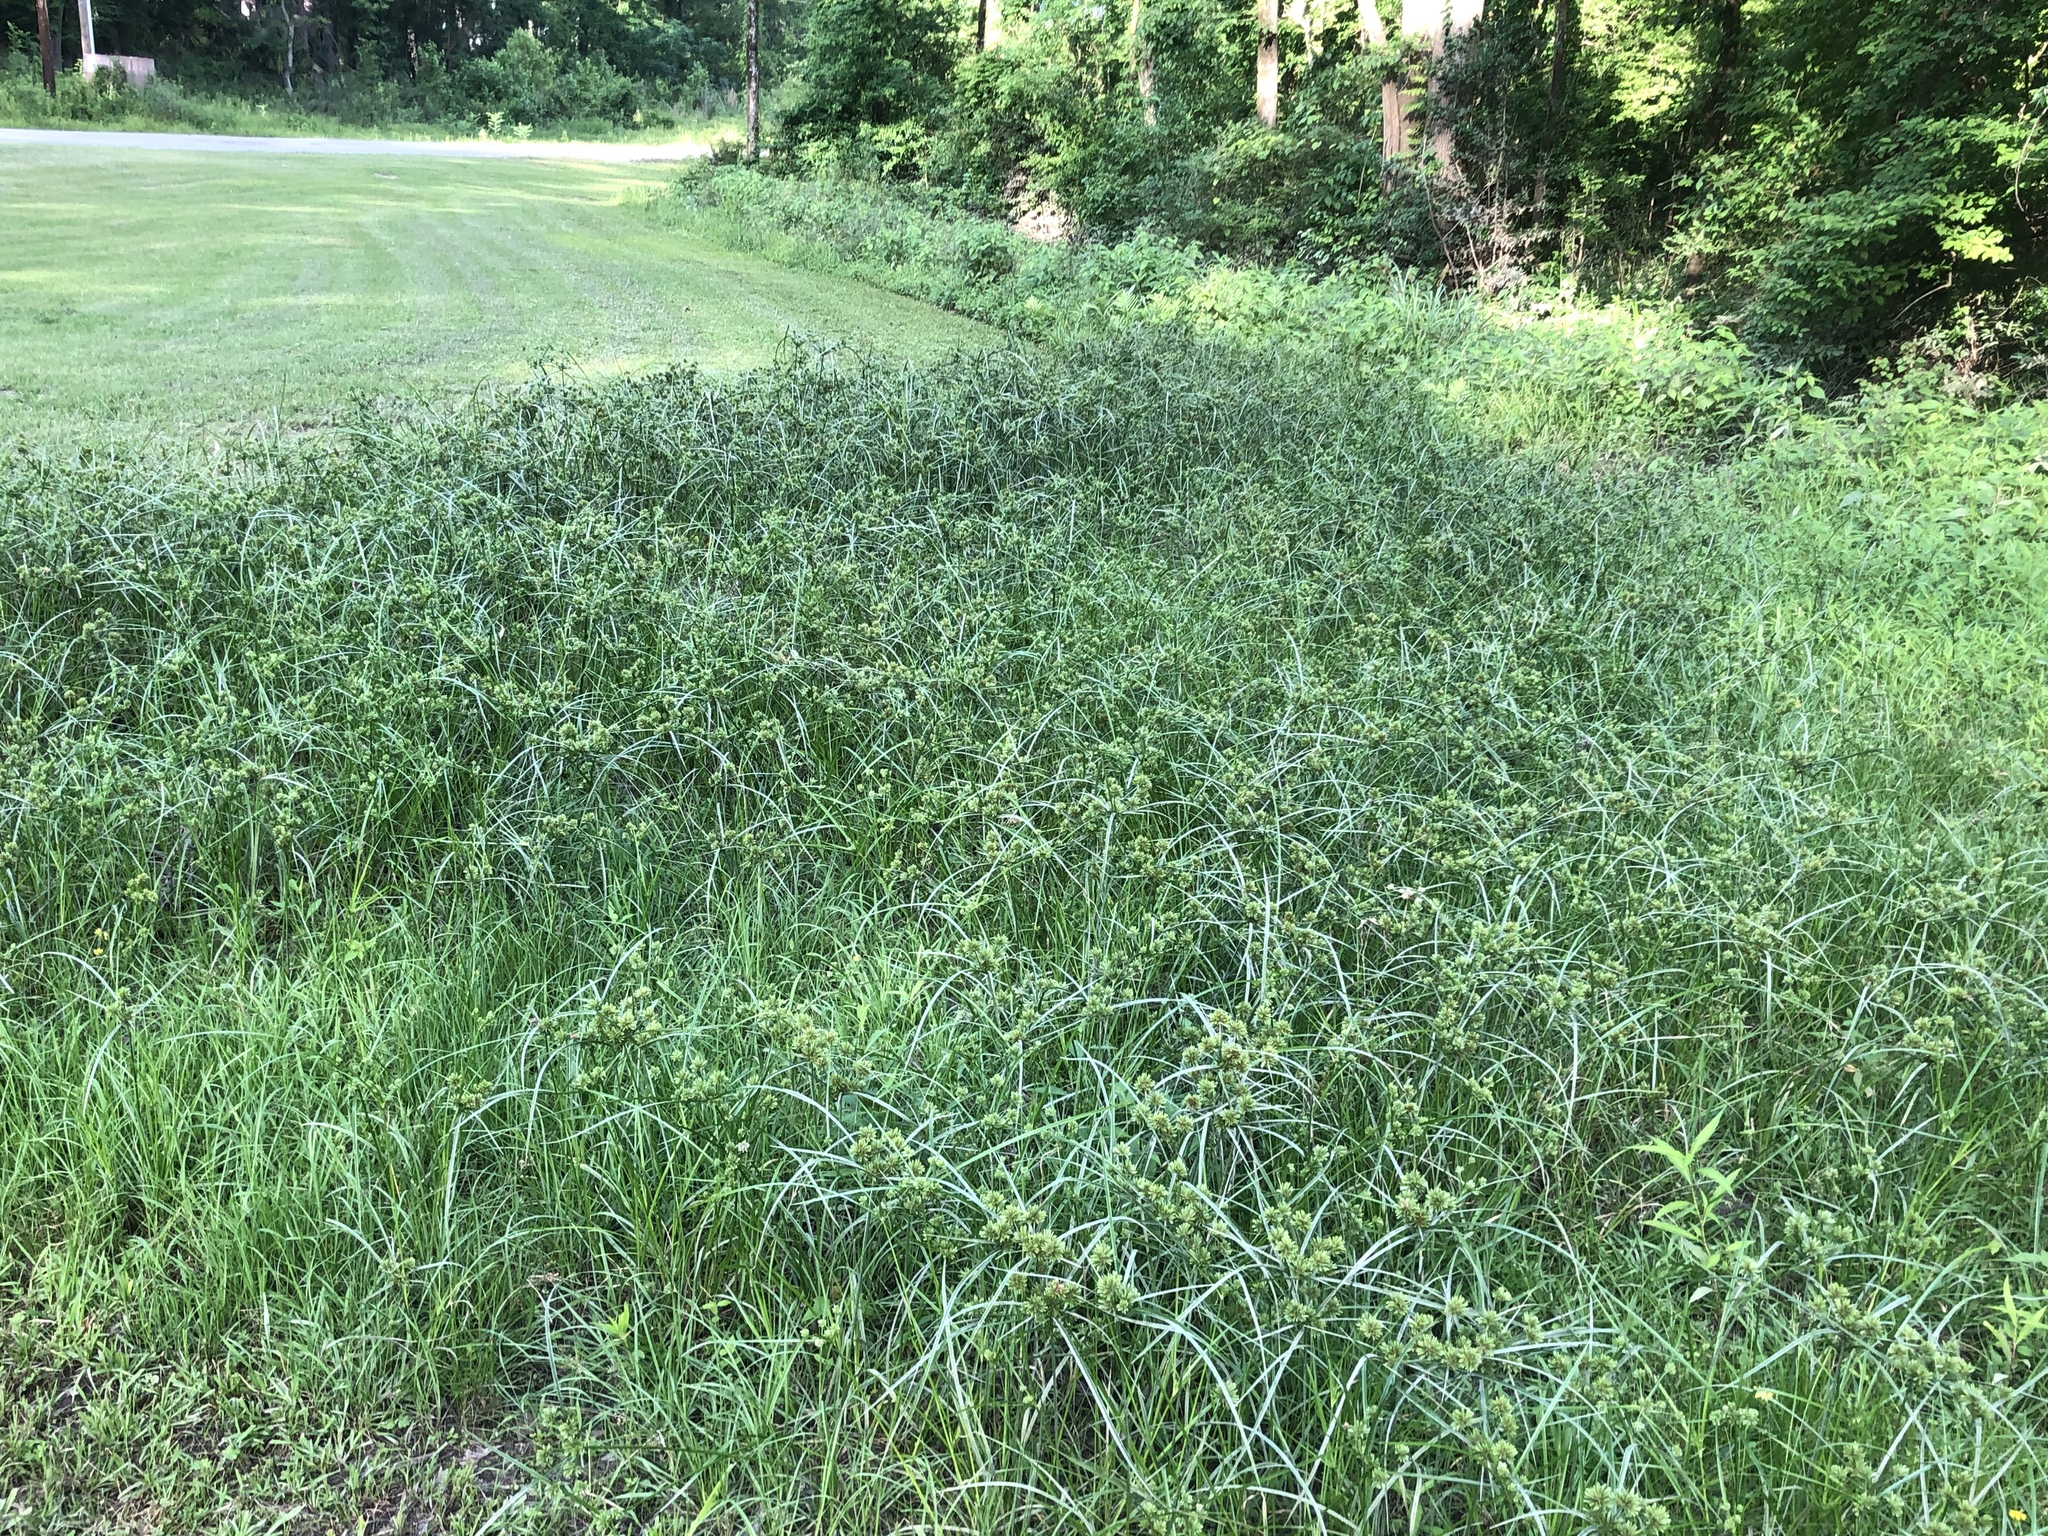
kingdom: Plantae
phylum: Tracheophyta
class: Liliopsida
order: Poales
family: Cyperaceae
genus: Cyperus
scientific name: Cyperus eragrostis
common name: Tall flatsedge
